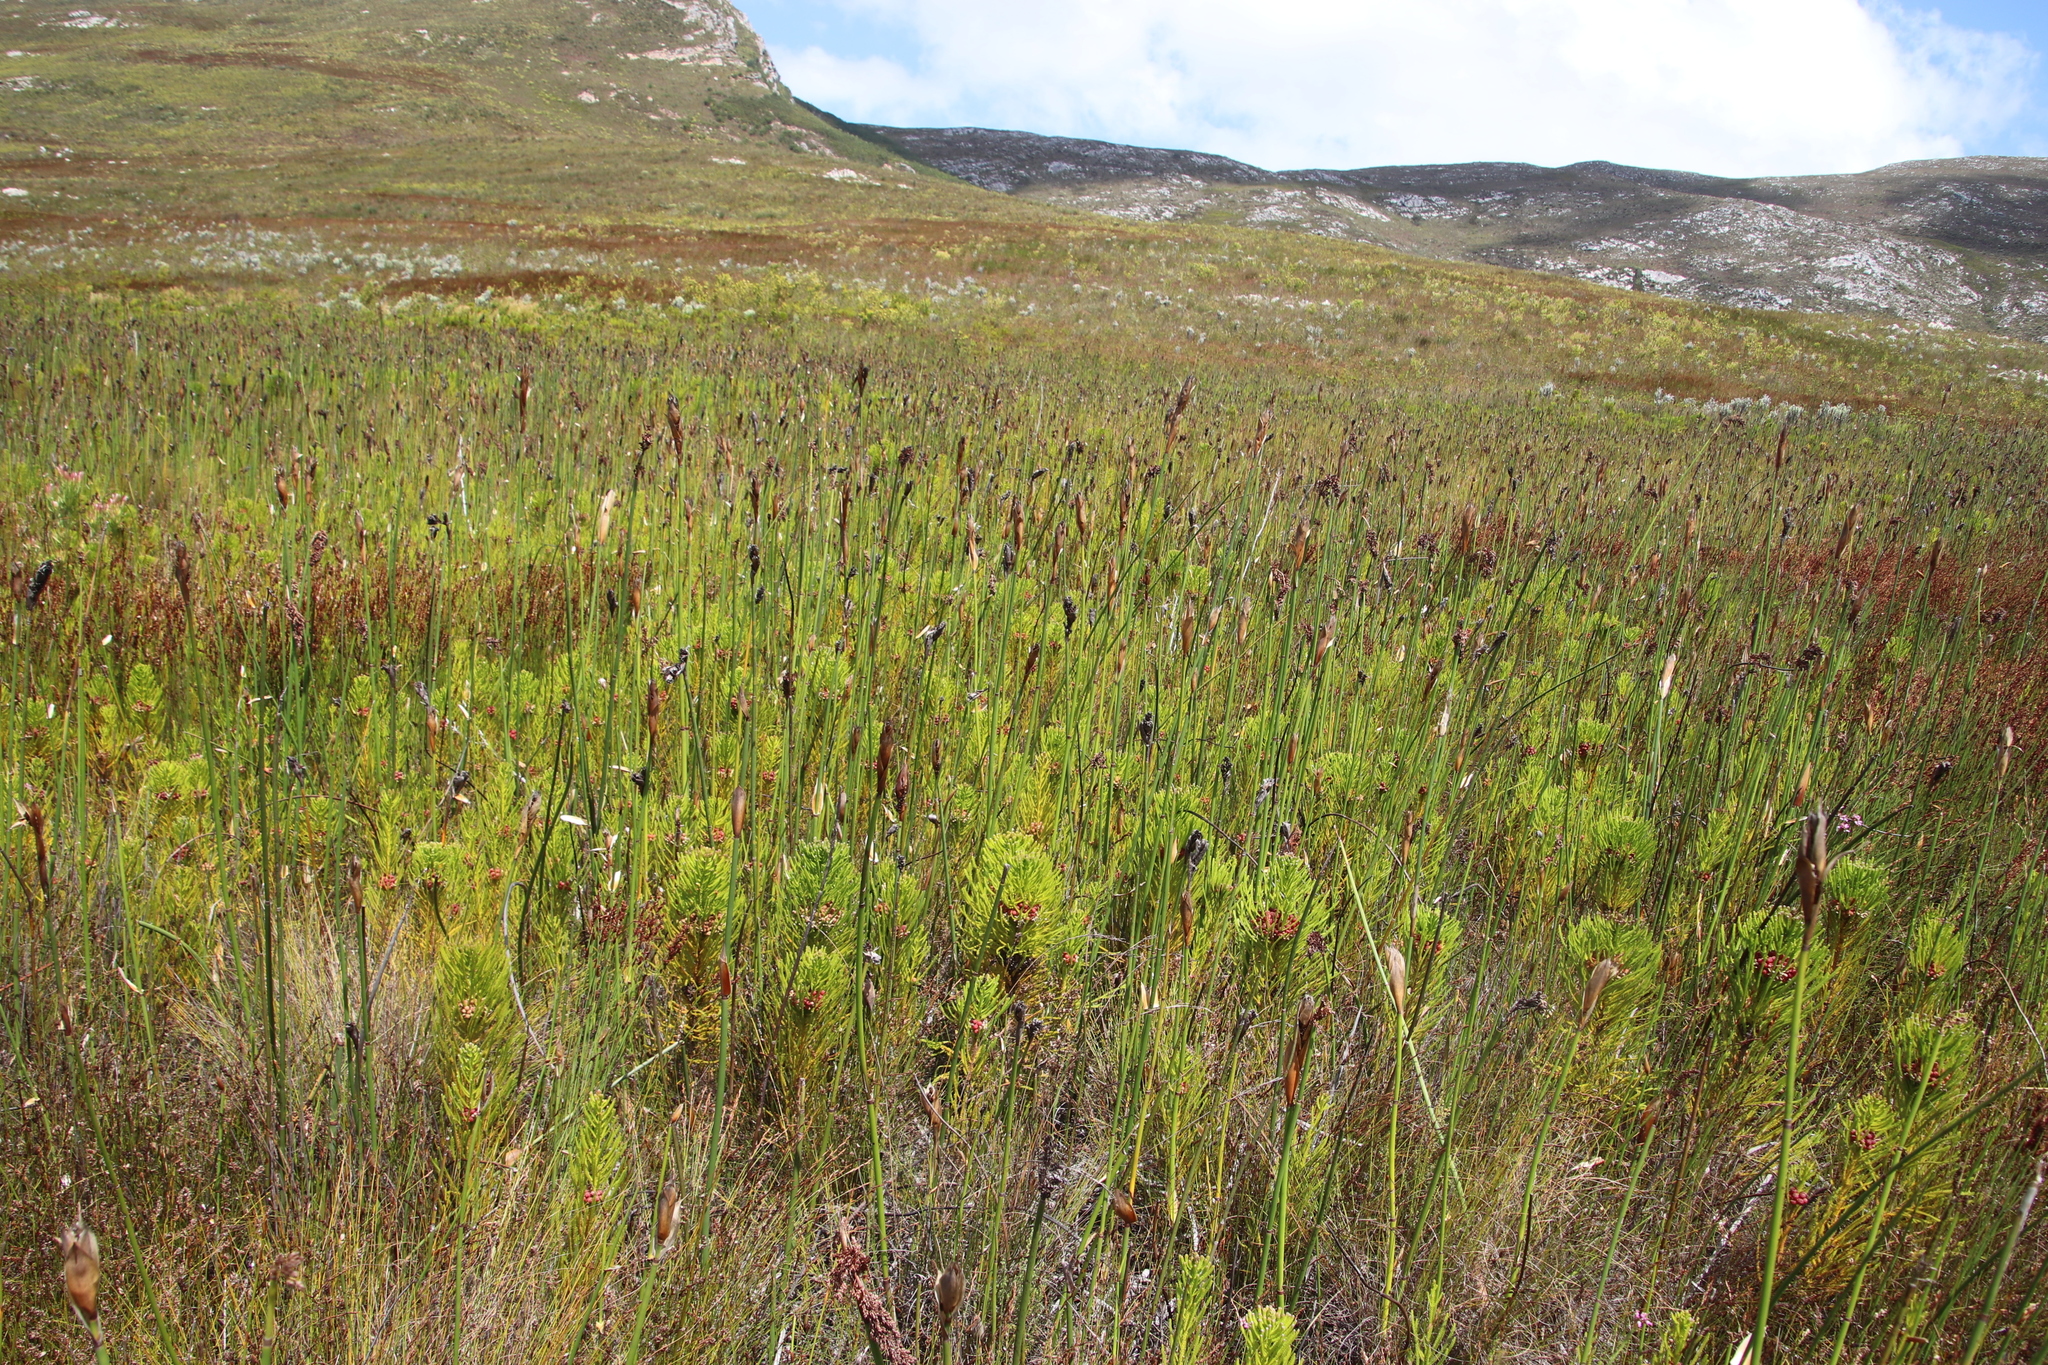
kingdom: Plantae
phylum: Tracheophyta
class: Magnoliopsida
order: Bruniales
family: Bruniaceae
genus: Berzelia
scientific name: Berzelia alopecurioides
